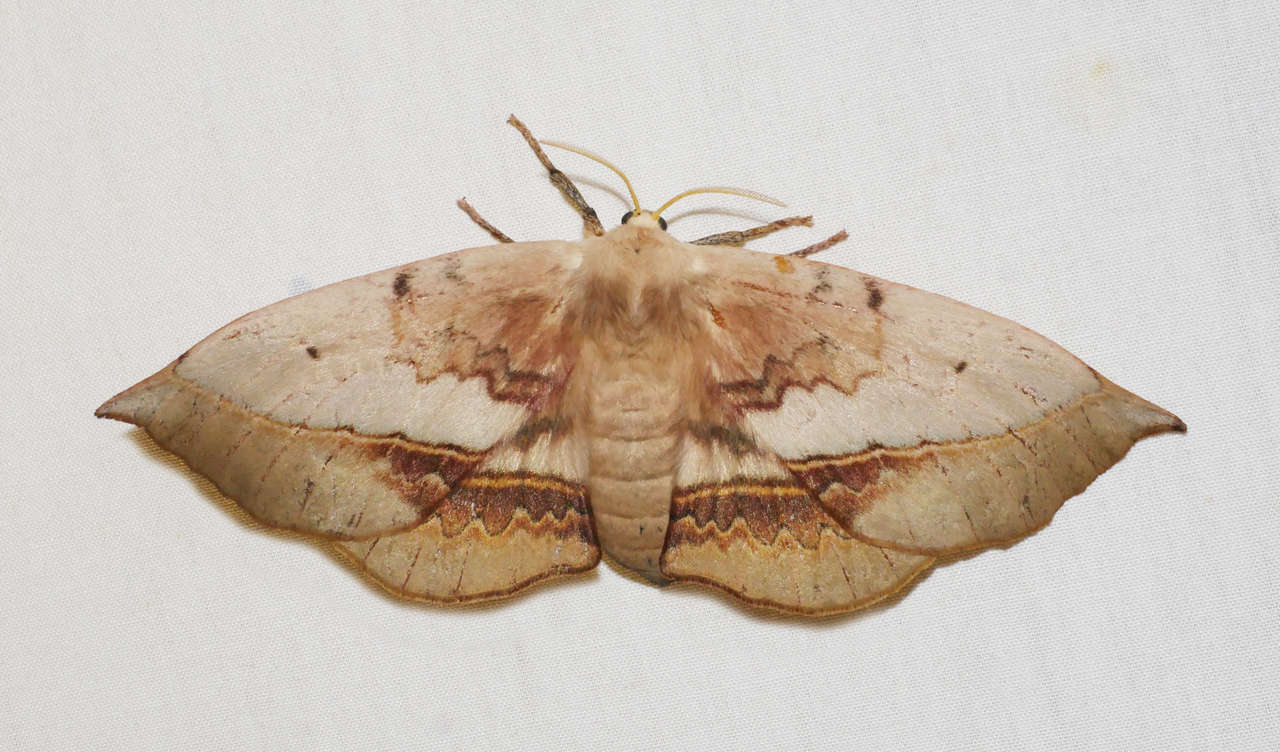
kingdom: Animalia
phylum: Arthropoda
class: Insecta
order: Lepidoptera
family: Anthelidae
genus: Anthela
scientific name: Anthela varia
